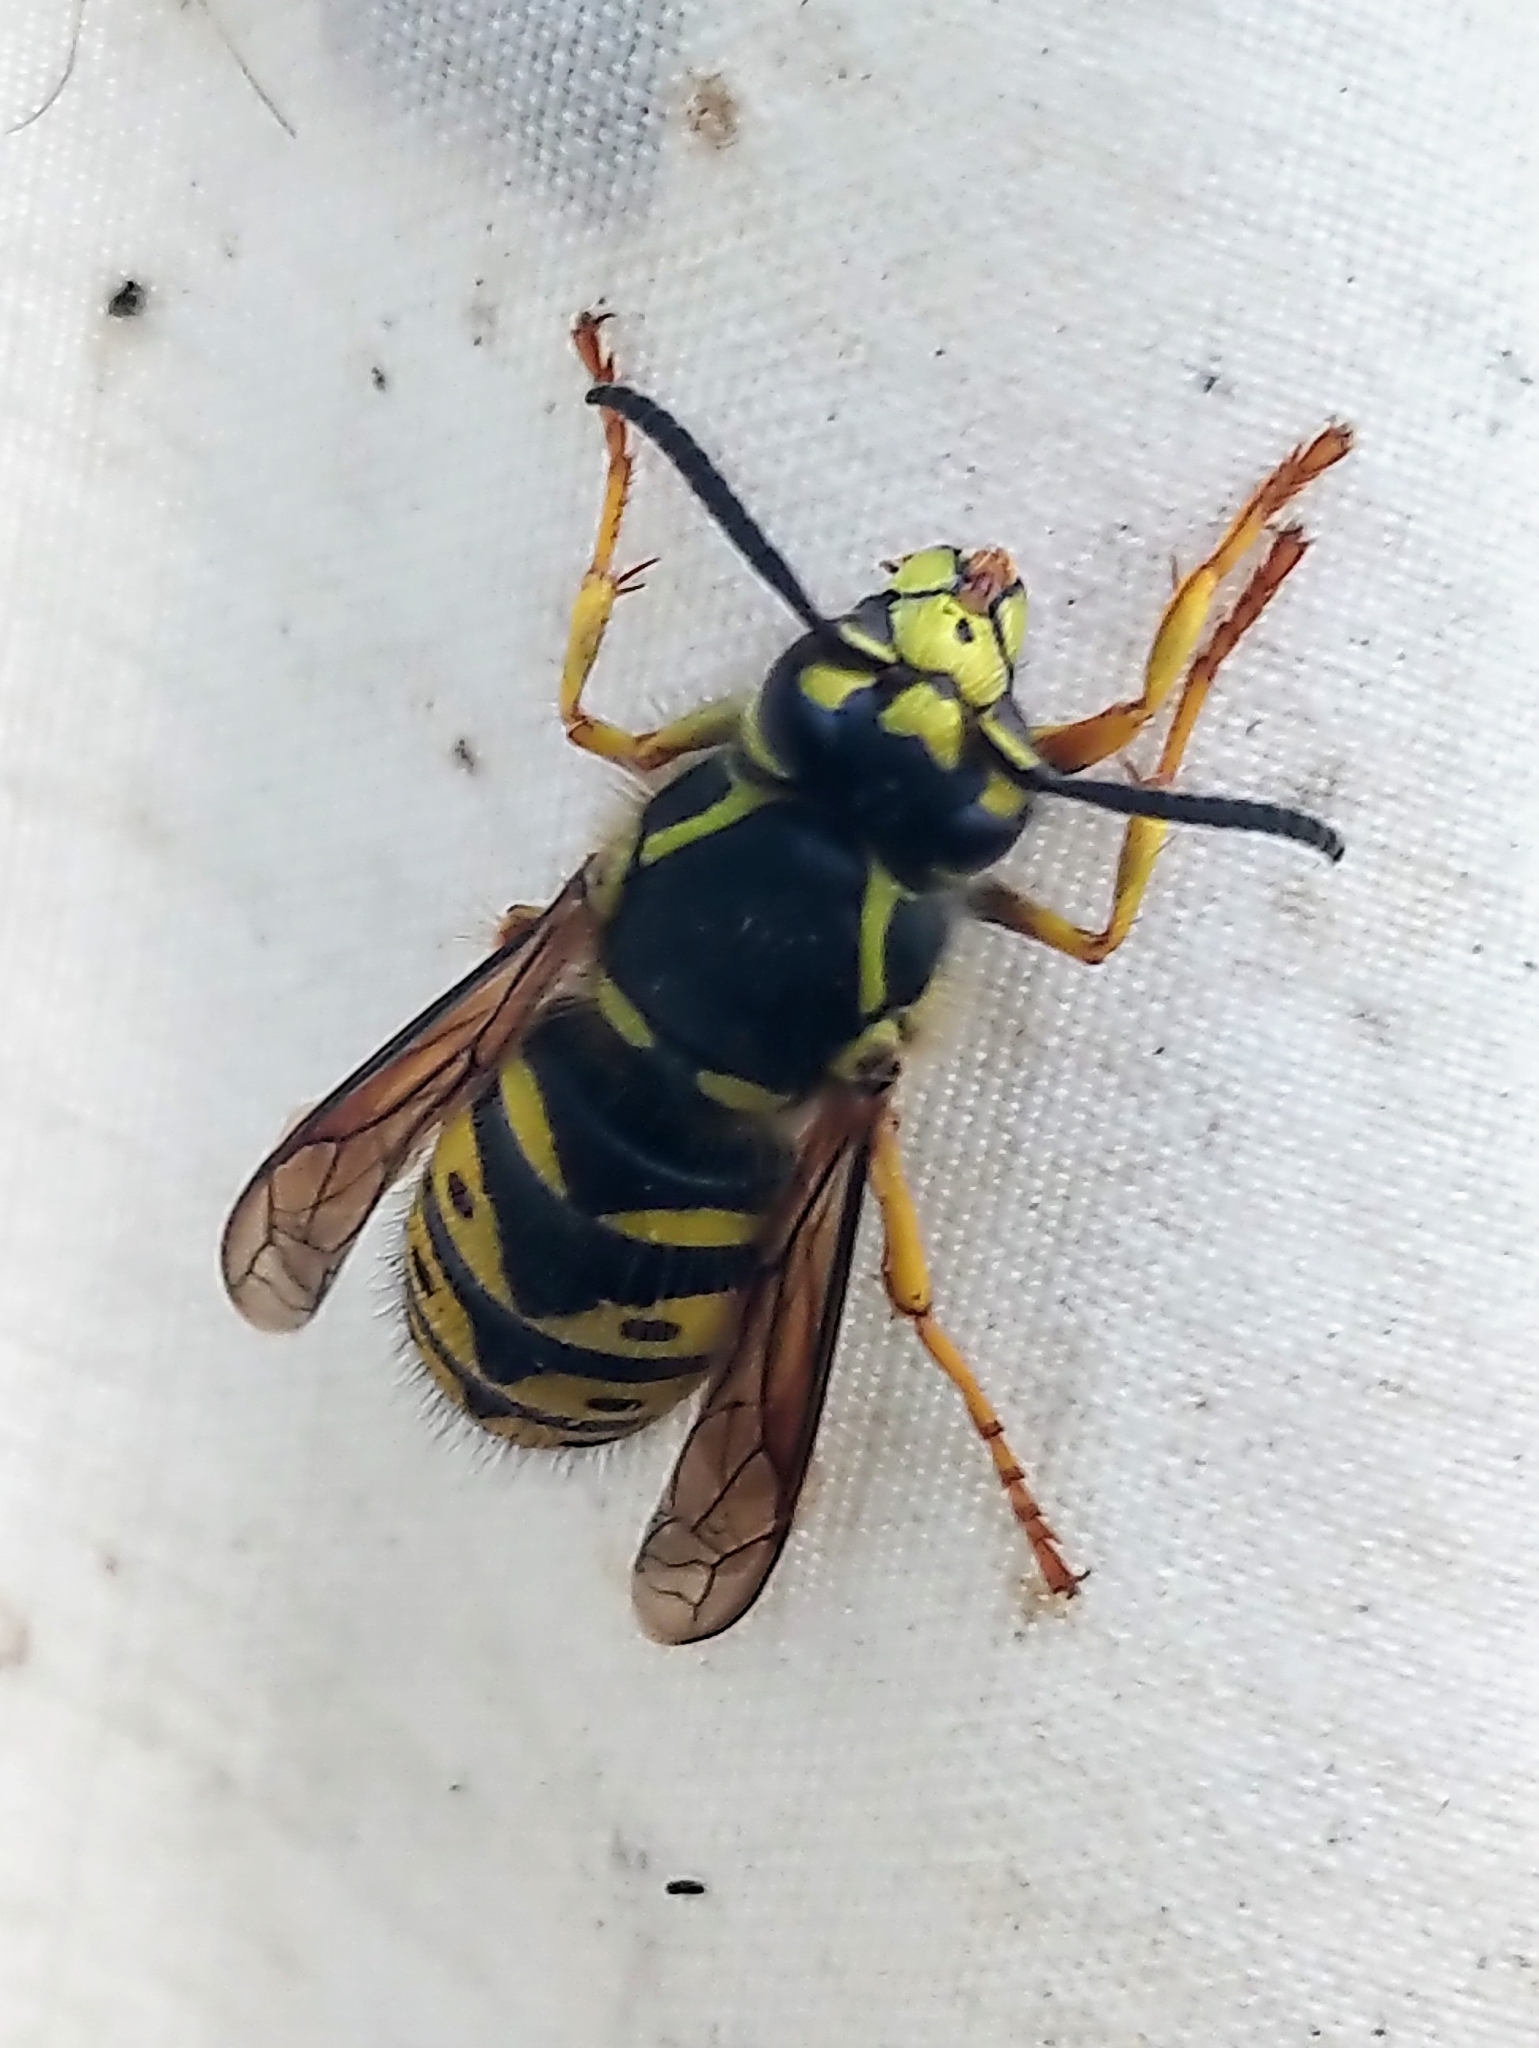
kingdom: Animalia
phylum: Arthropoda
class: Insecta
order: Hymenoptera
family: Vespidae
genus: Dolichovespula
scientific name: Dolichovespula arenaria
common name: Aerial yellowjacket
